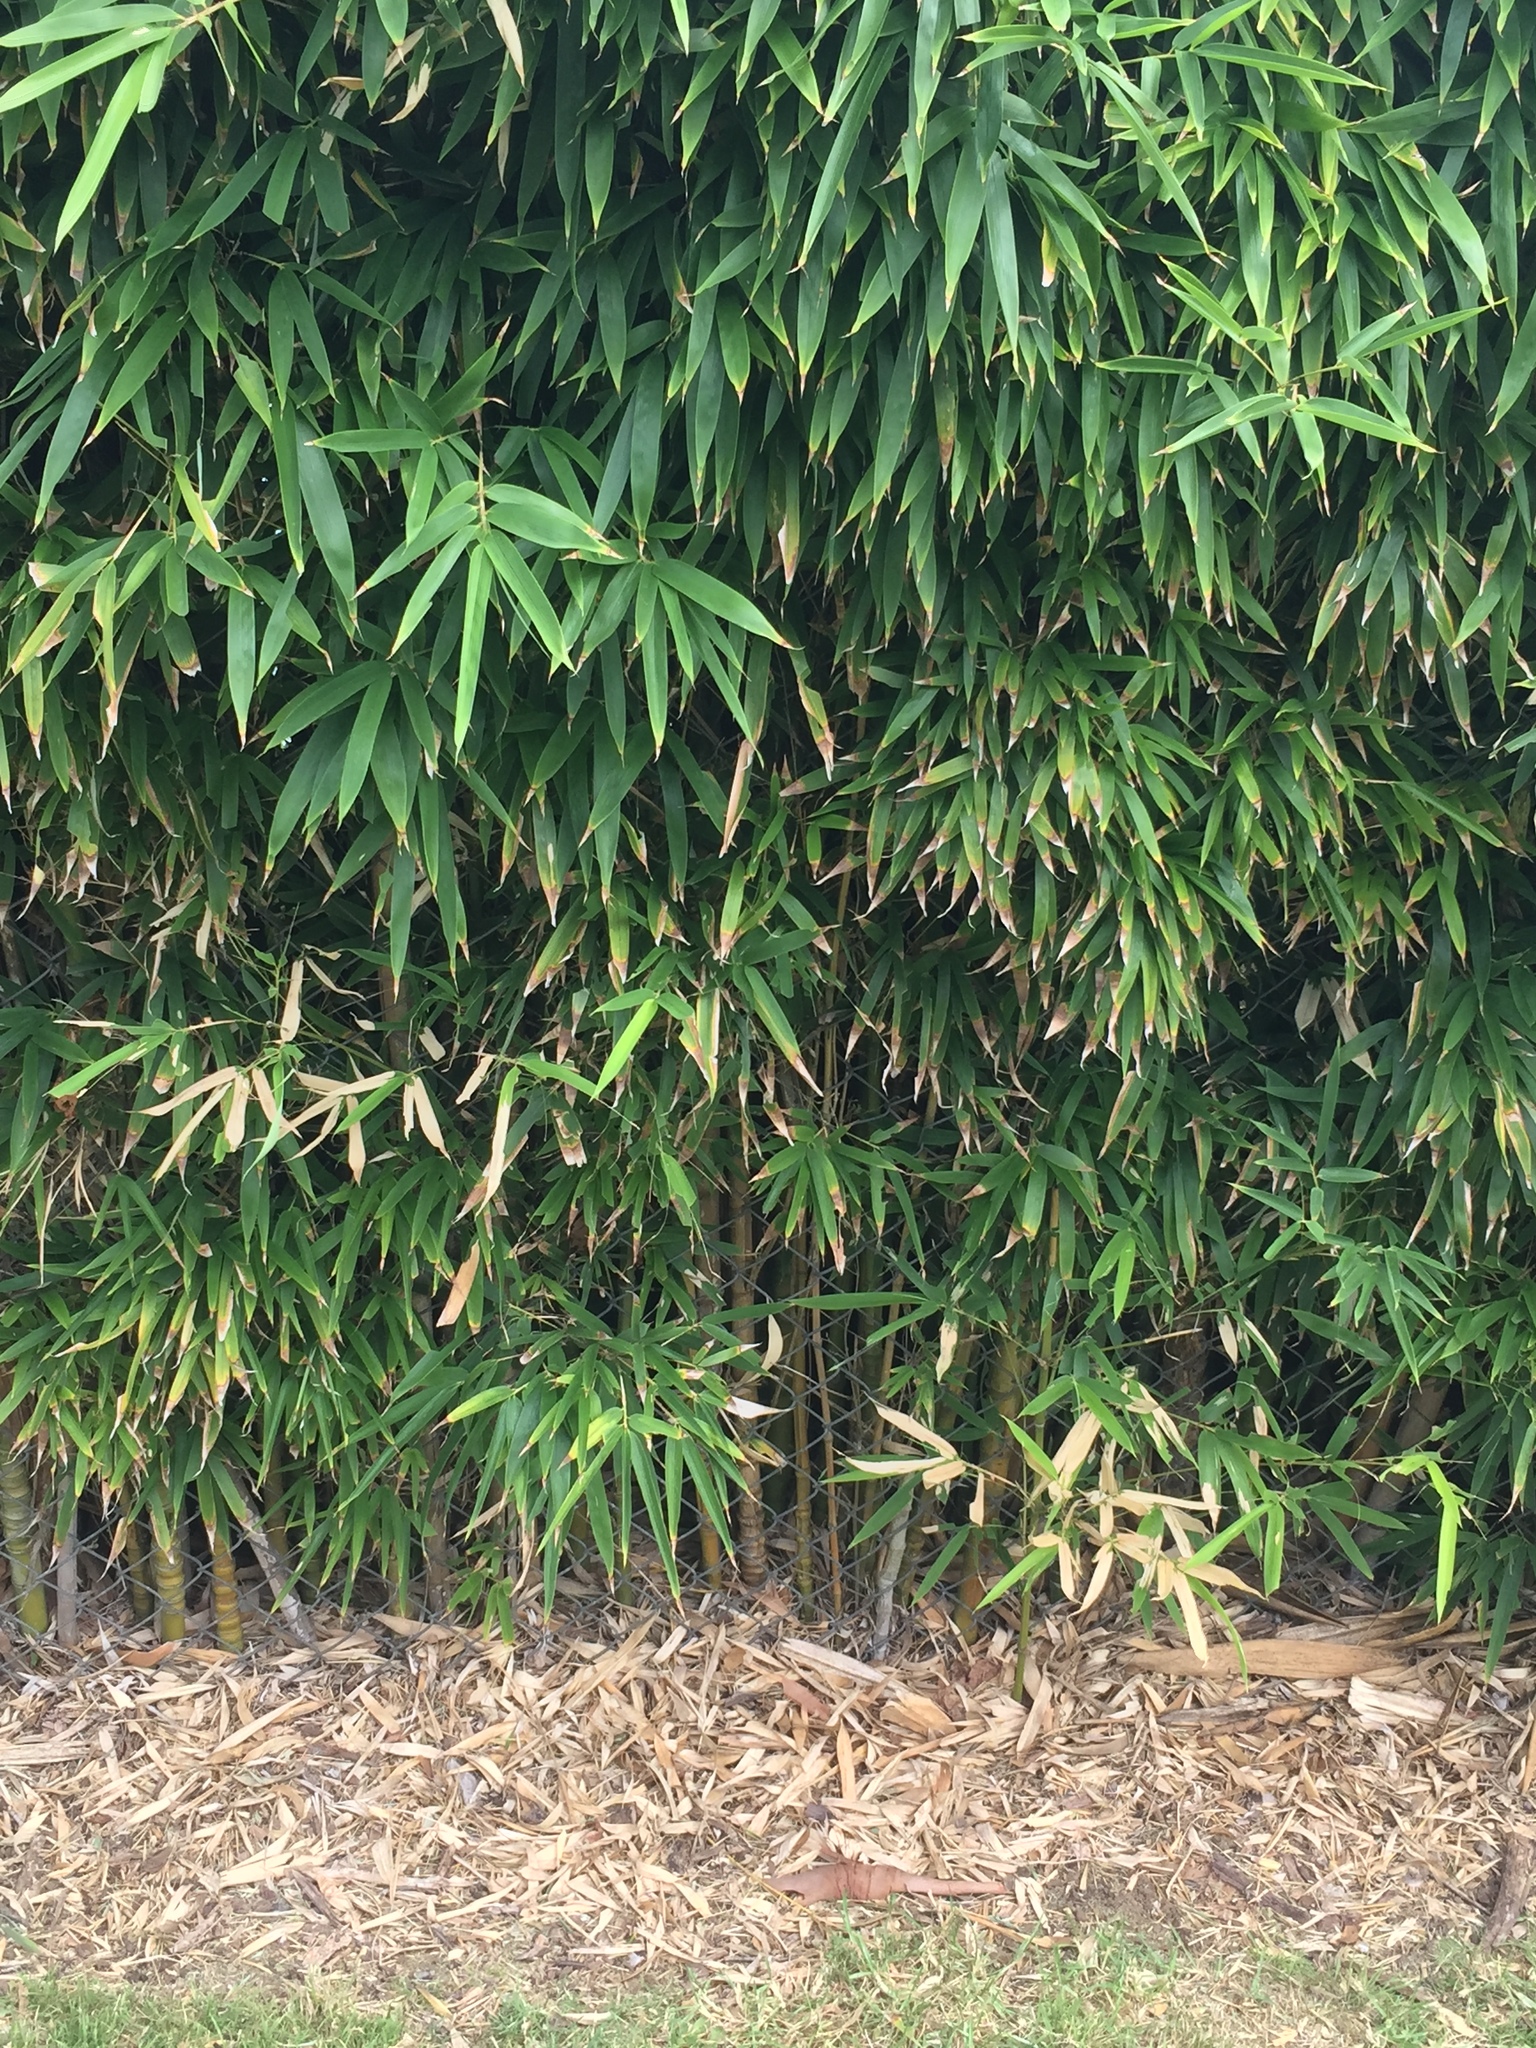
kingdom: Animalia
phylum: Arthropoda
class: Insecta
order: Lepidoptera
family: Zygaenidae
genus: Artona
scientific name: Artona martini
